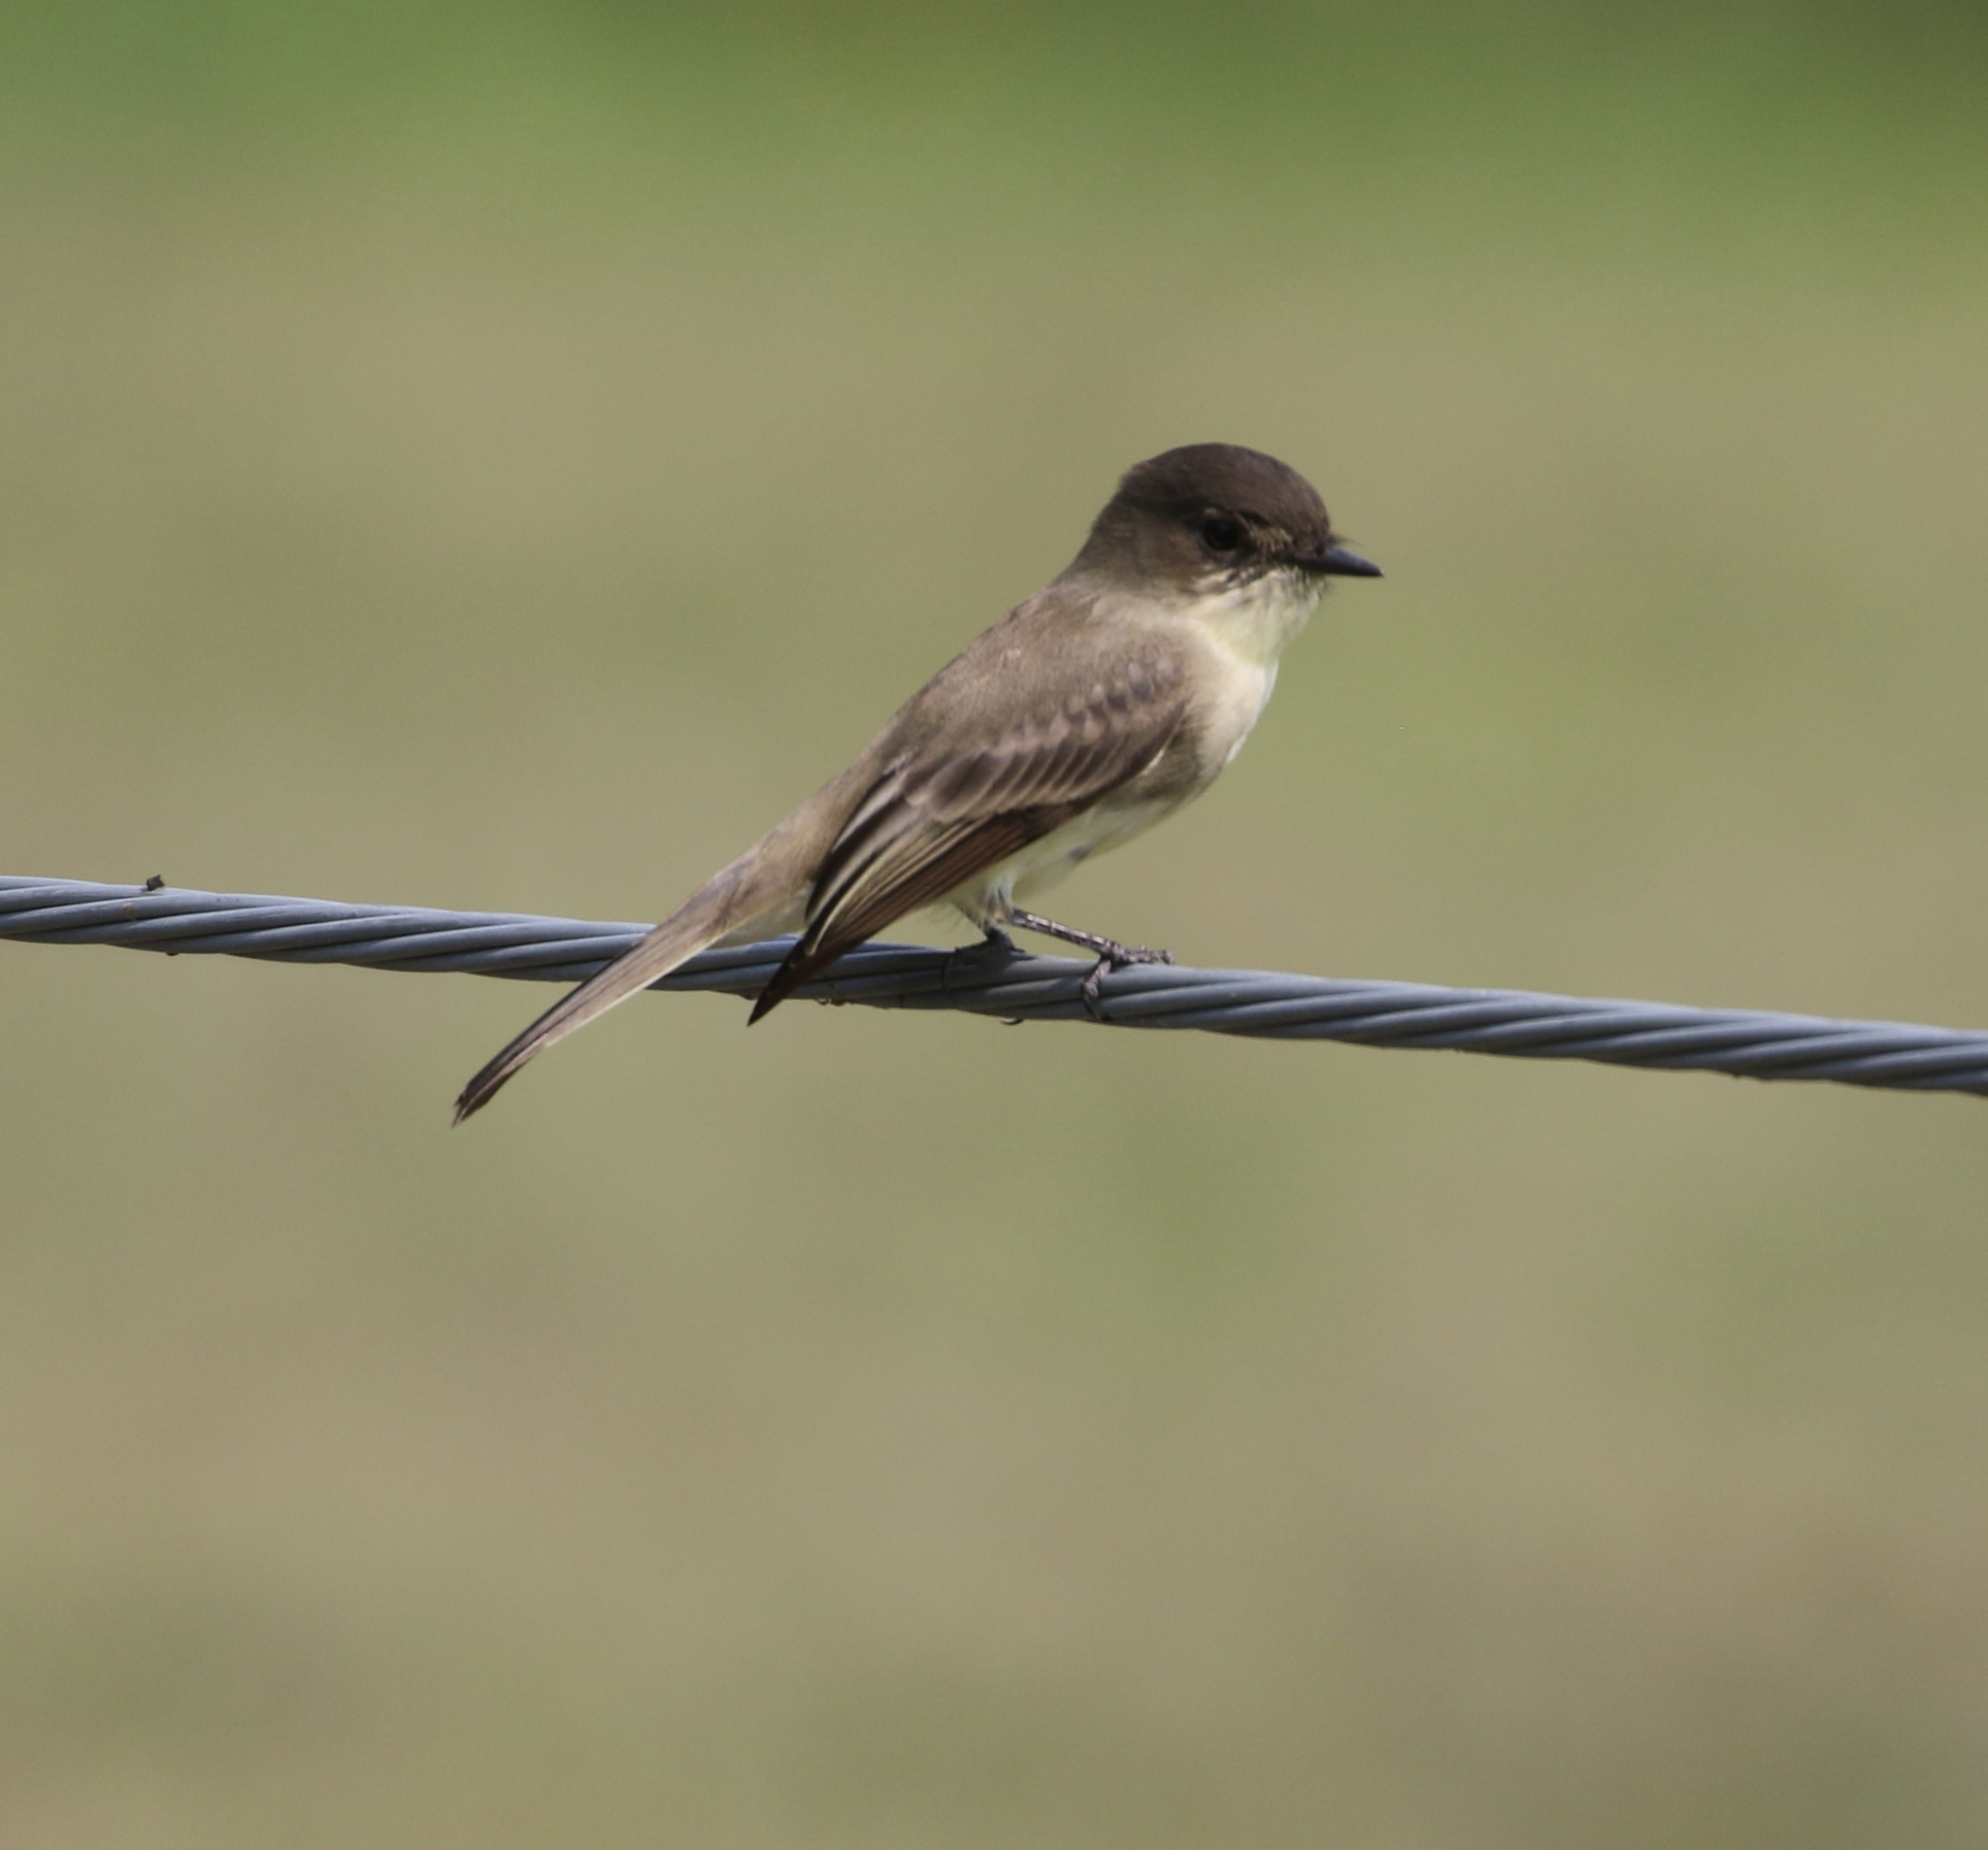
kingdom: Animalia
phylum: Chordata
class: Aves
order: Passeriformes
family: Tyrannidae
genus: Sayornis
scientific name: Sayornis phoebe
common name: Eastern phoebe
